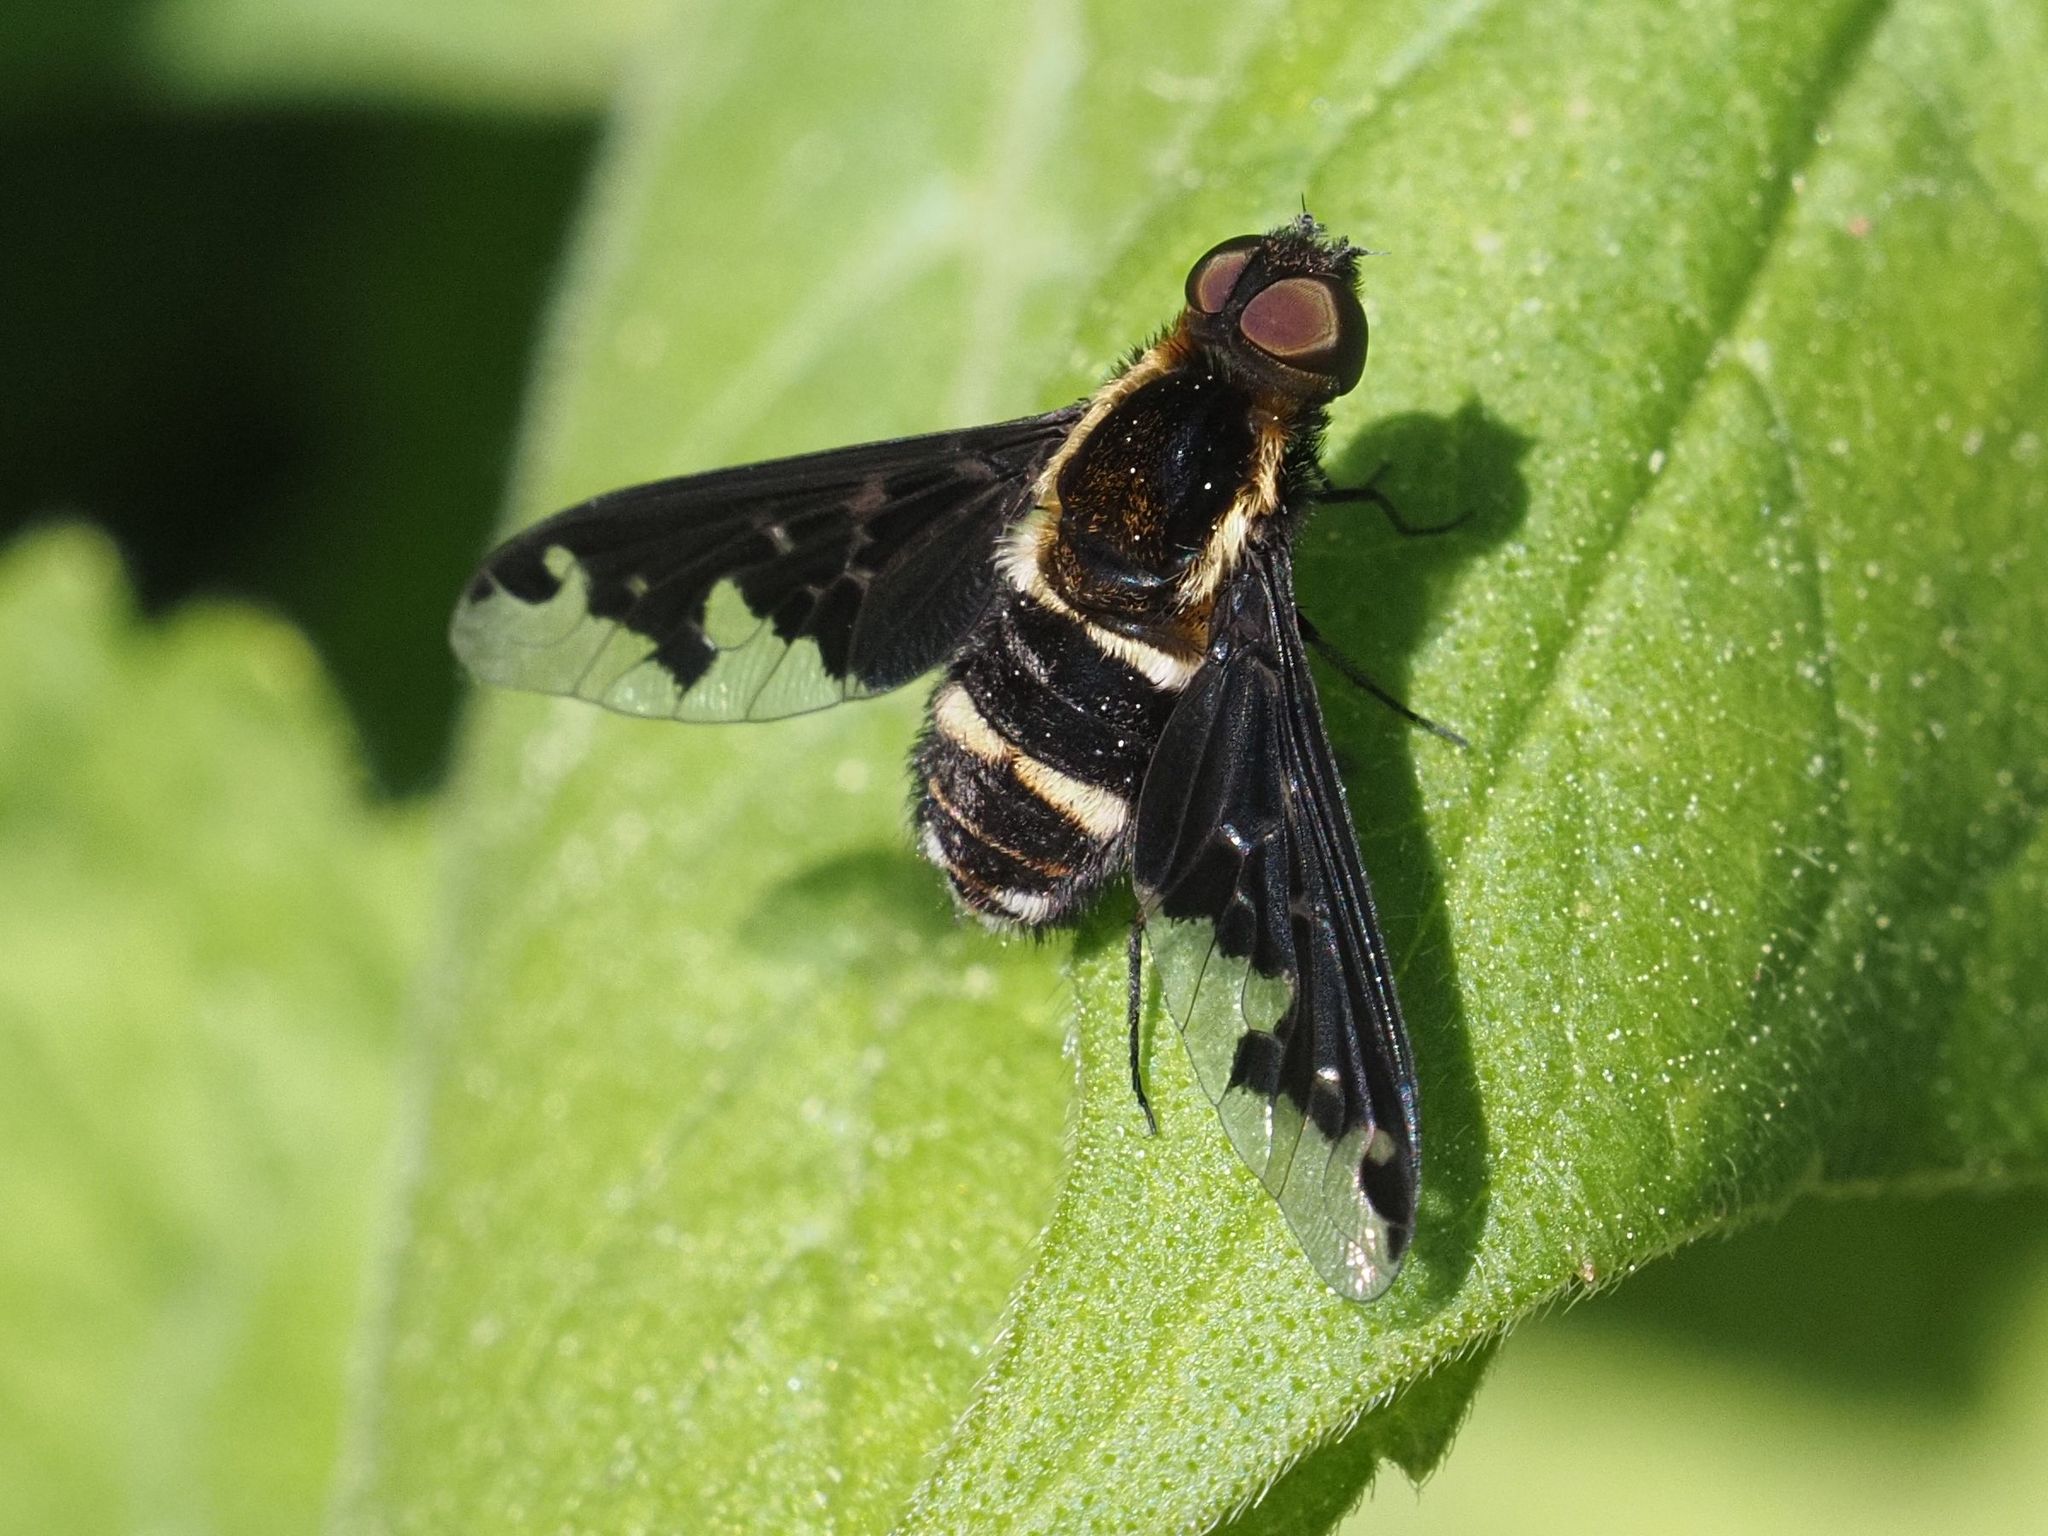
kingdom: Animalia
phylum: Arthropoda
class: Insecta
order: Diptera
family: Bombyliidae
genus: Hemipenthes
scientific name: Hemipenthes maura
